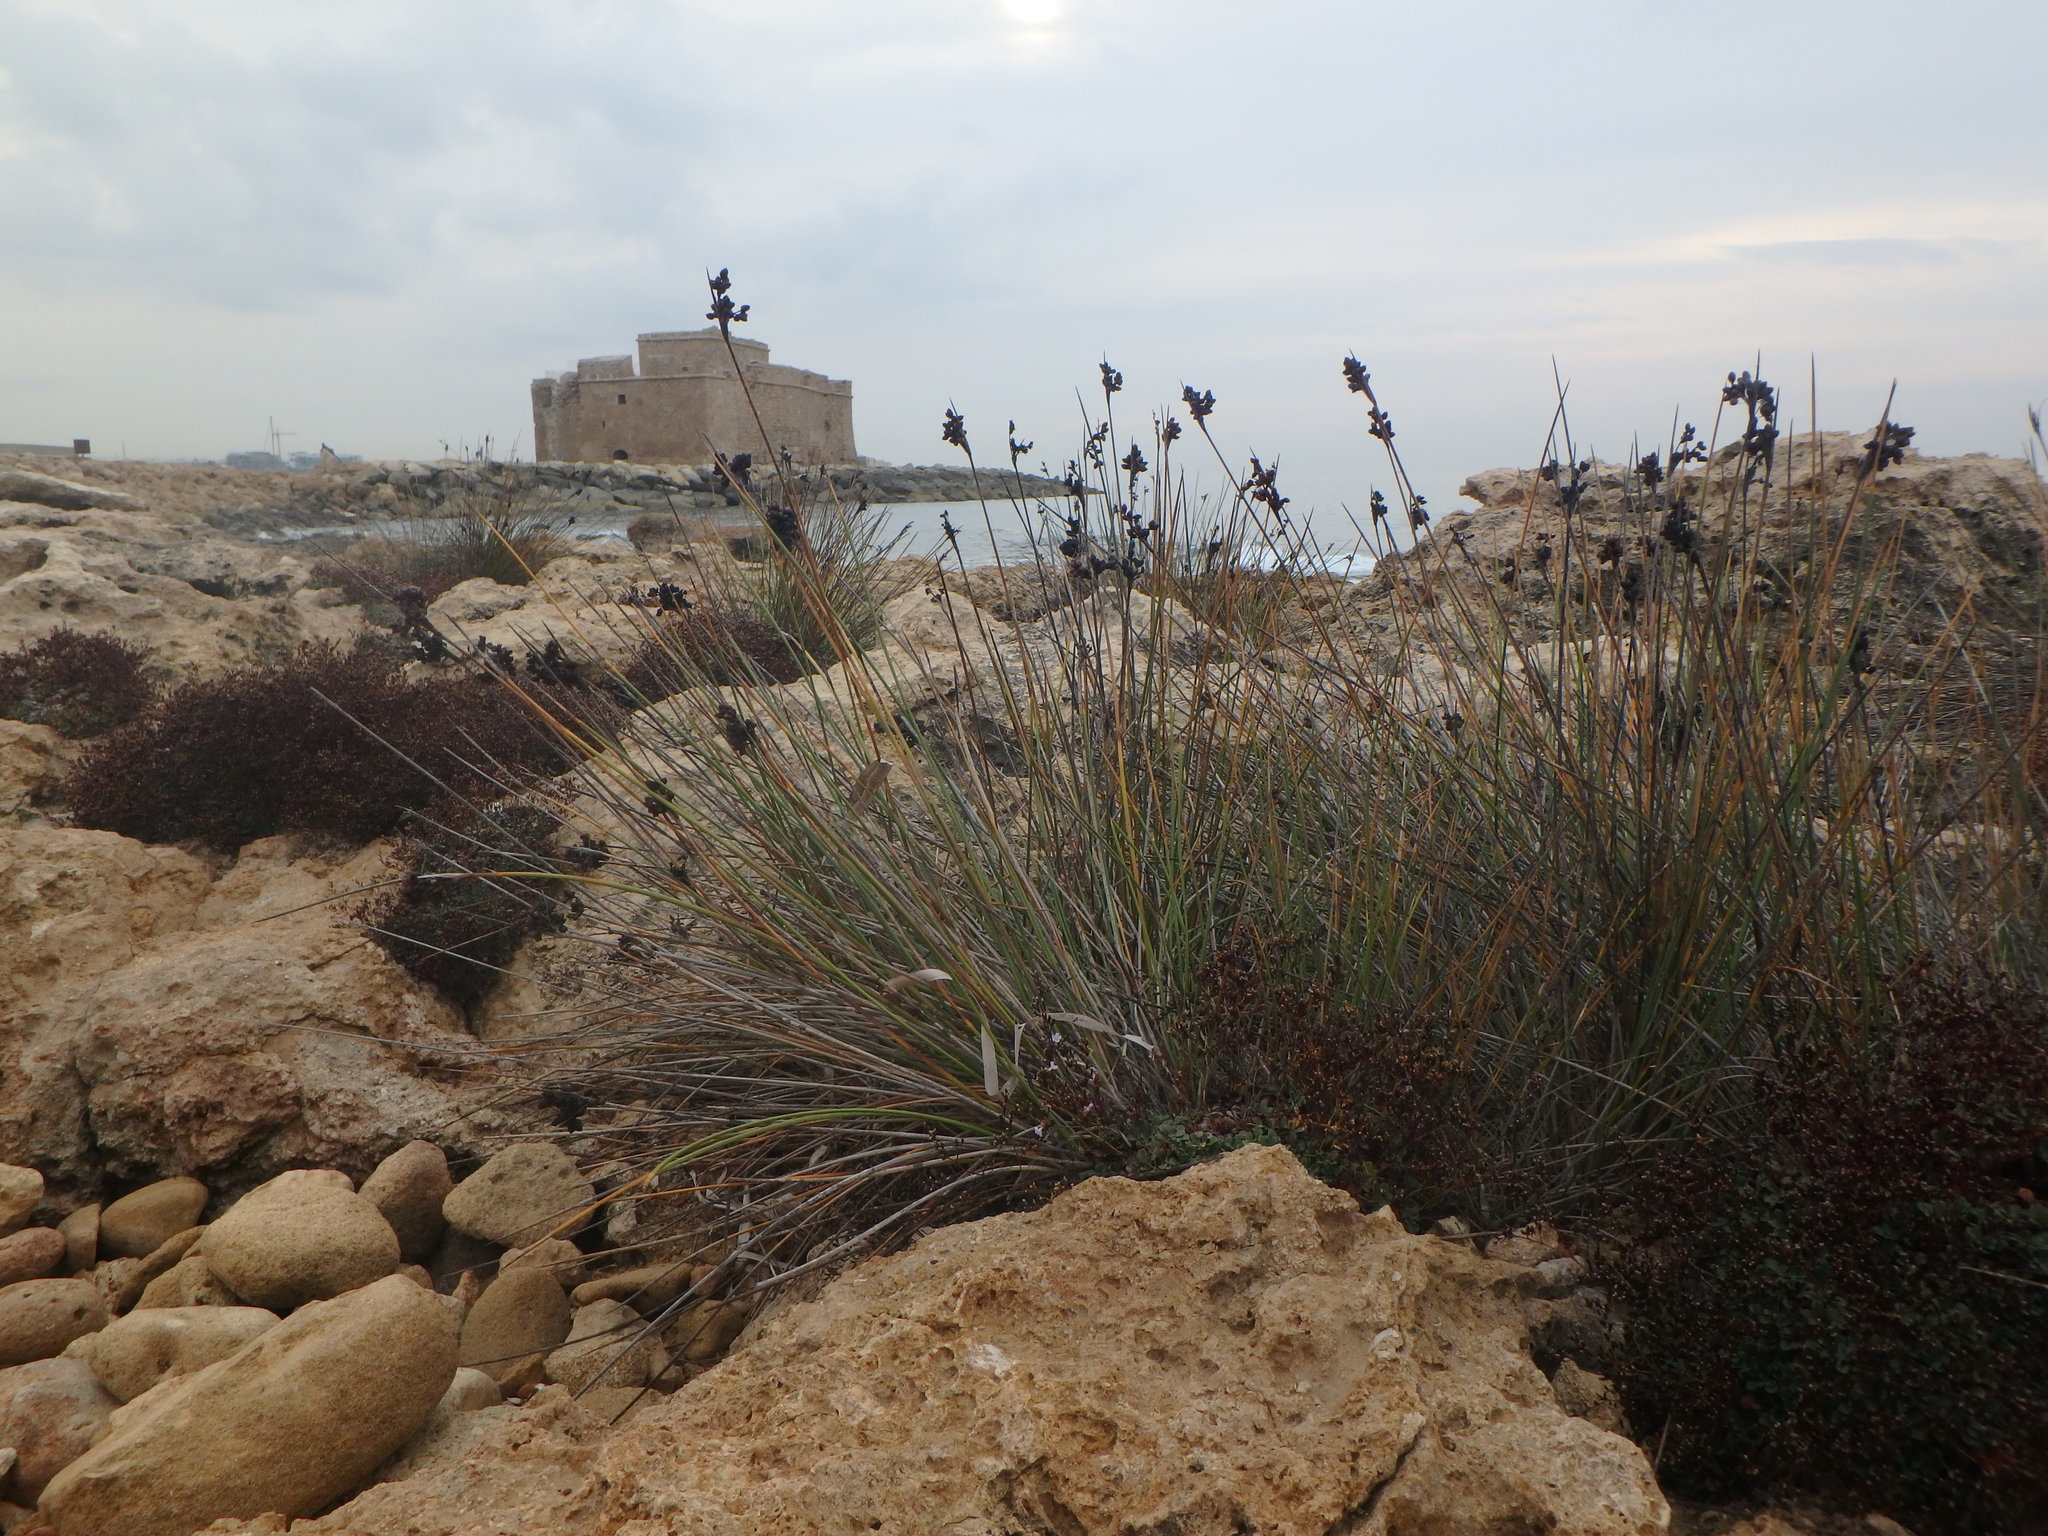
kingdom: Plantae
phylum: Tracheophyta
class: Liliopsida
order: Poales
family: Juncaceae
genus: Juncus
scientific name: Juncus acutus
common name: Sharp rush
